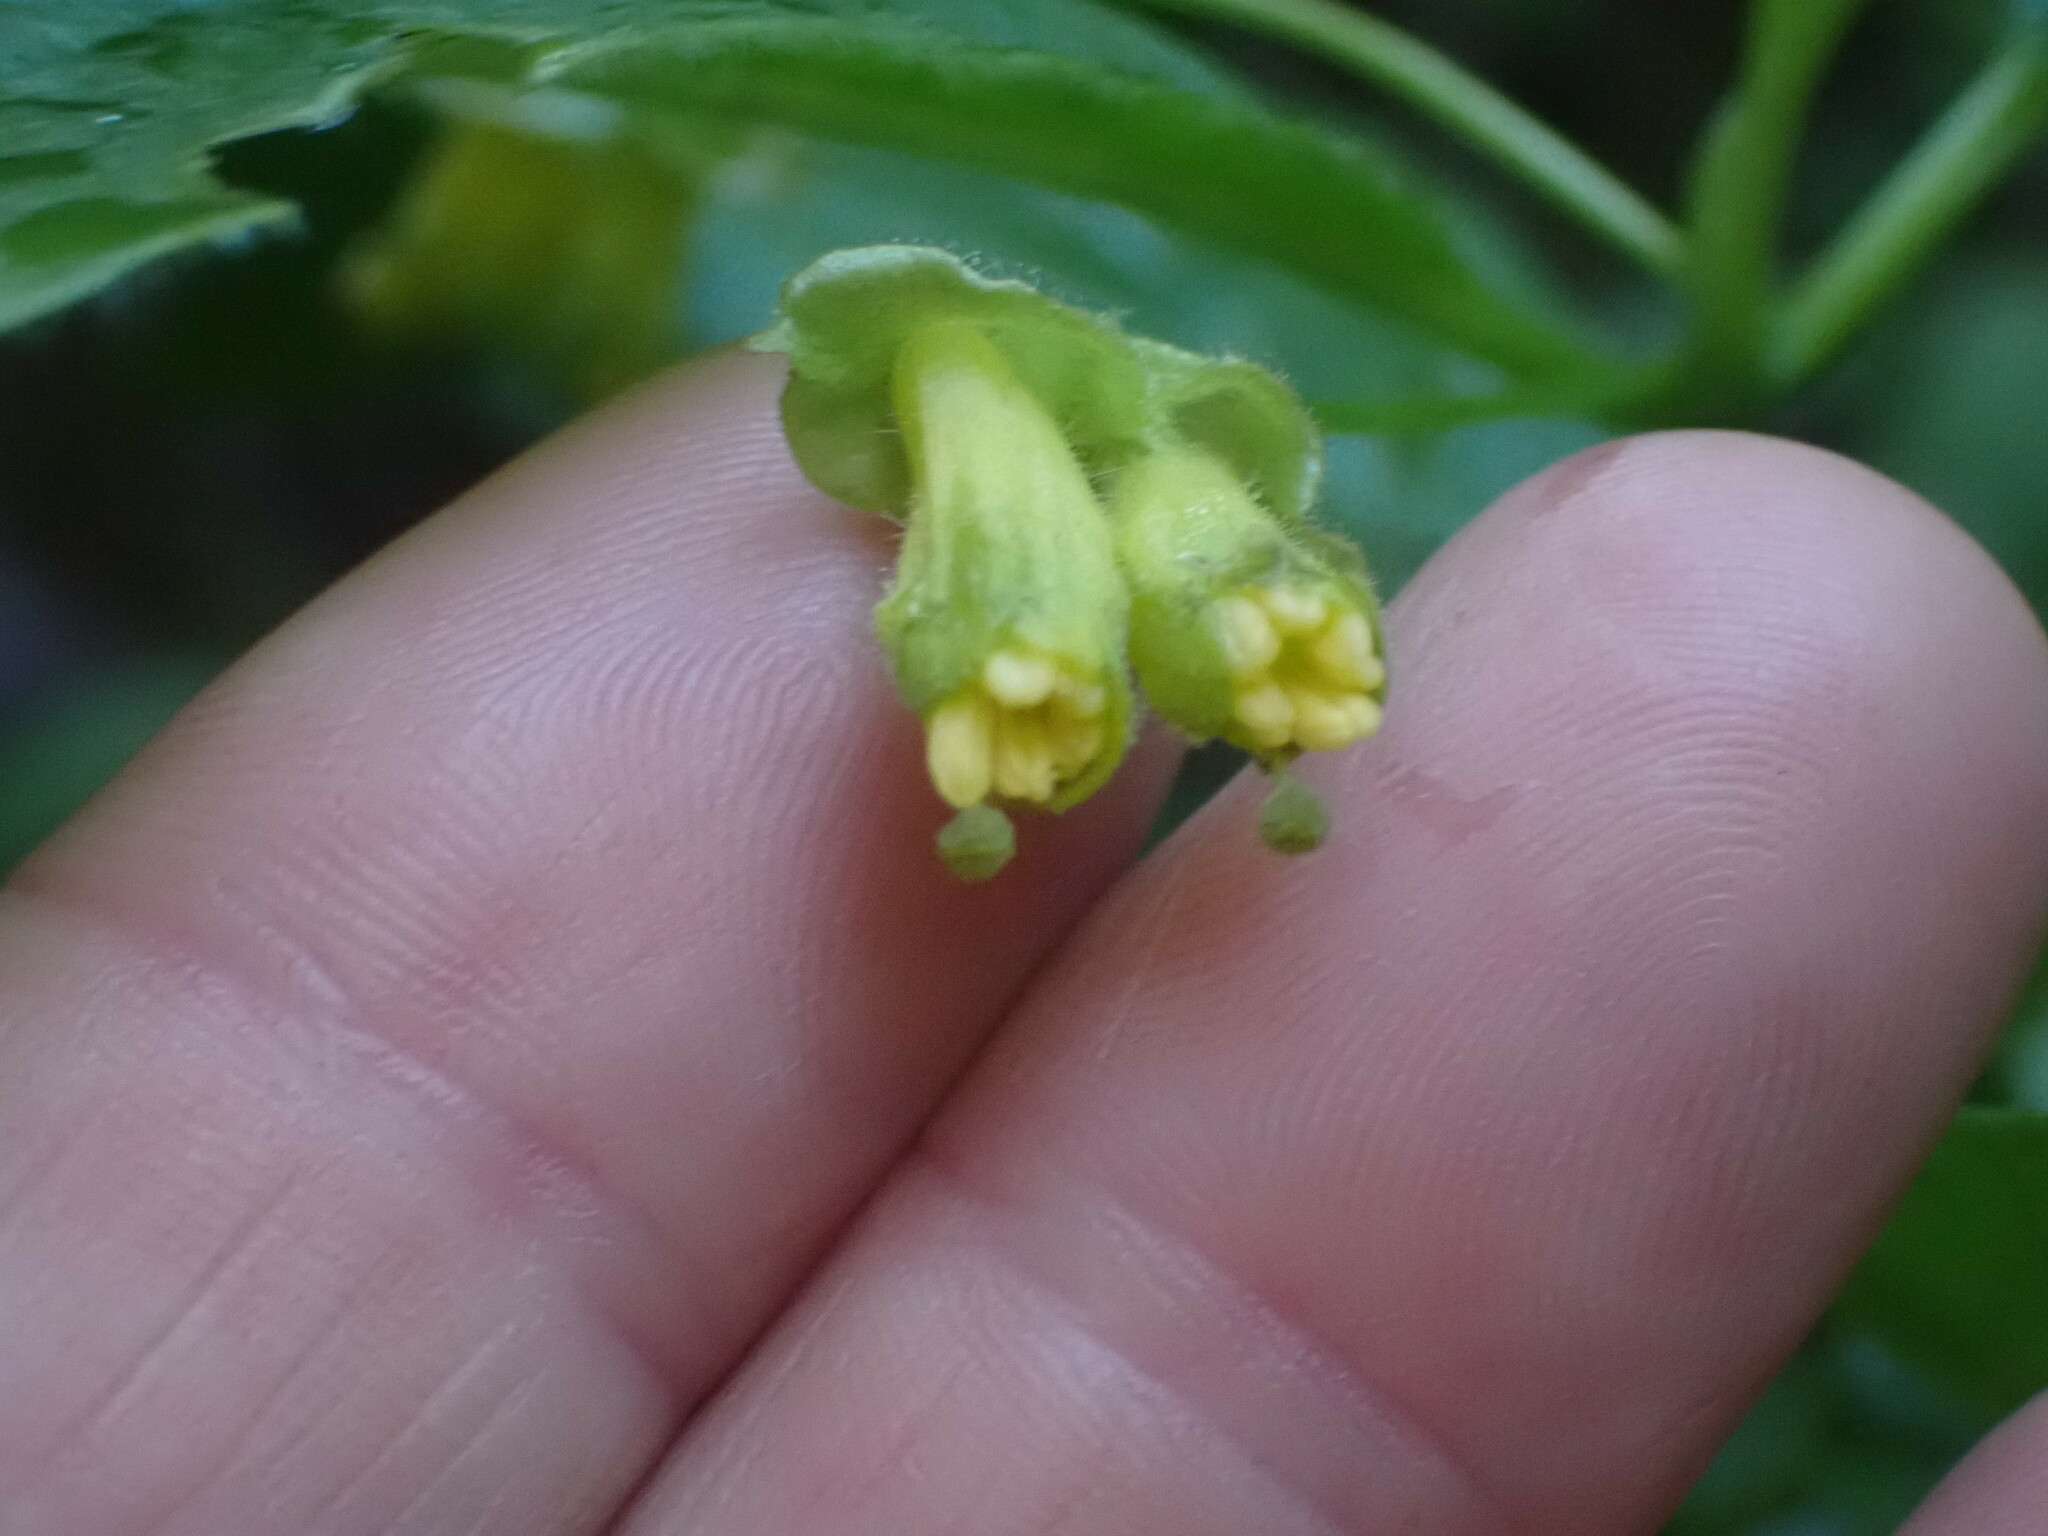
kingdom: Plantae
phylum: Tracheophyta
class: Magnoliopsida
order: Dipsacales
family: Caprifoliaceae
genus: Lonicera
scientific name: Lonicera involucrata
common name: Californian honeysuckle
